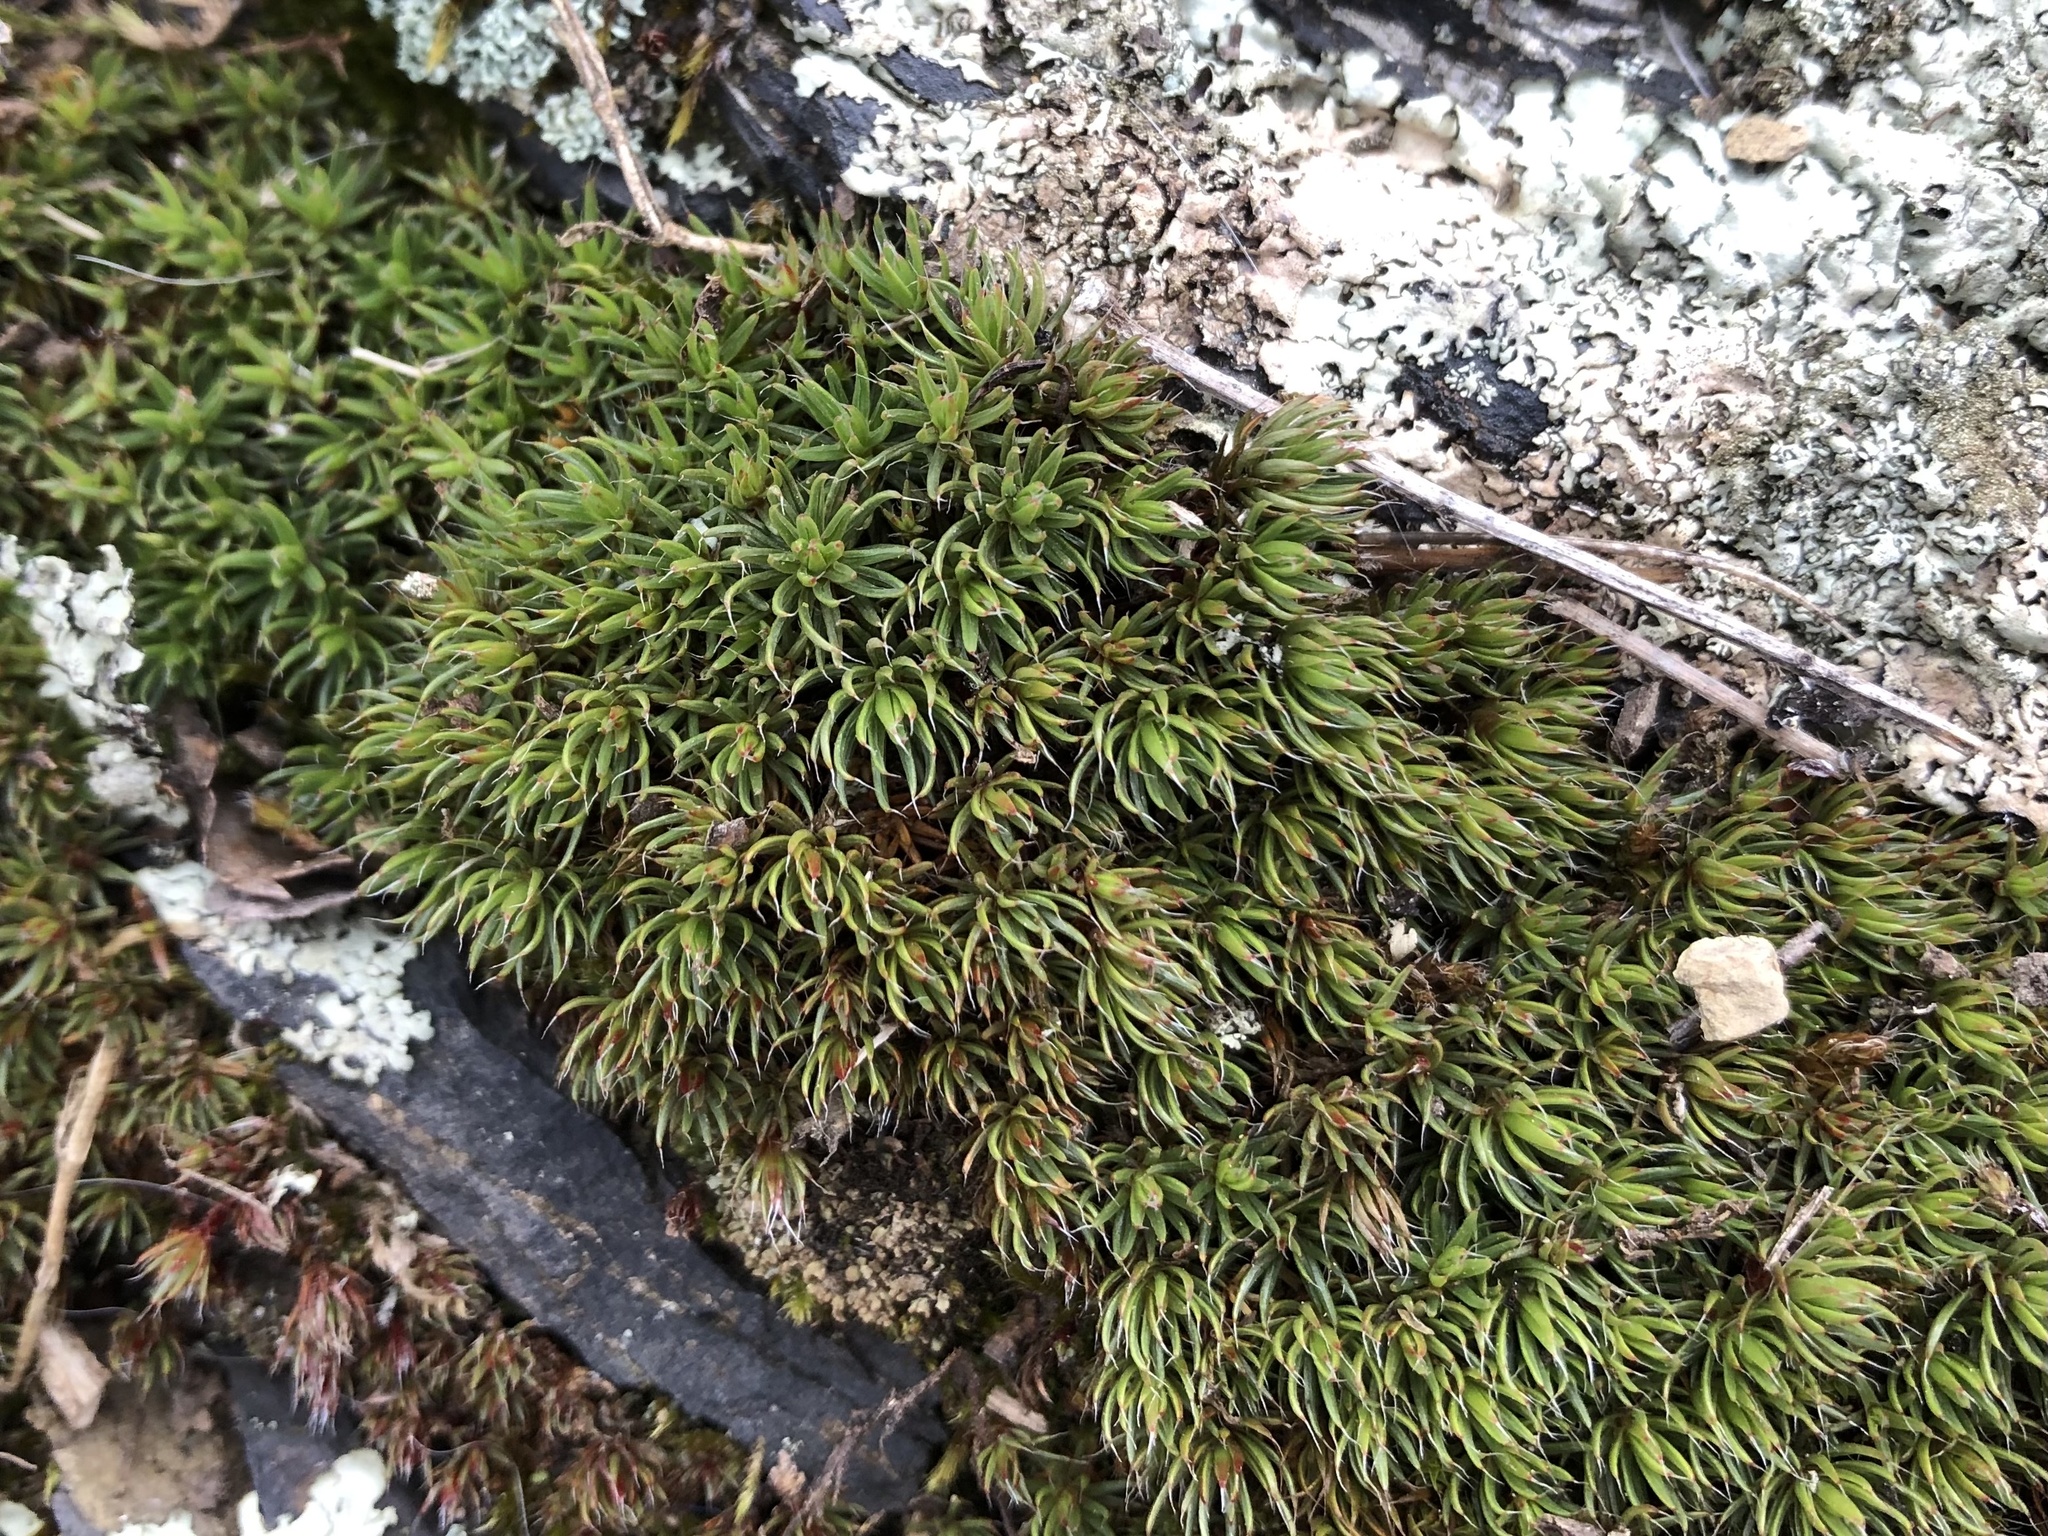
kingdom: Plantae
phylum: Bryophyta
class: Polytrichopsida
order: Polytrichales
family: Polytrichaceae
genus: Polytrichum
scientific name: Polytrichum piliferum
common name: Bristly haircap
